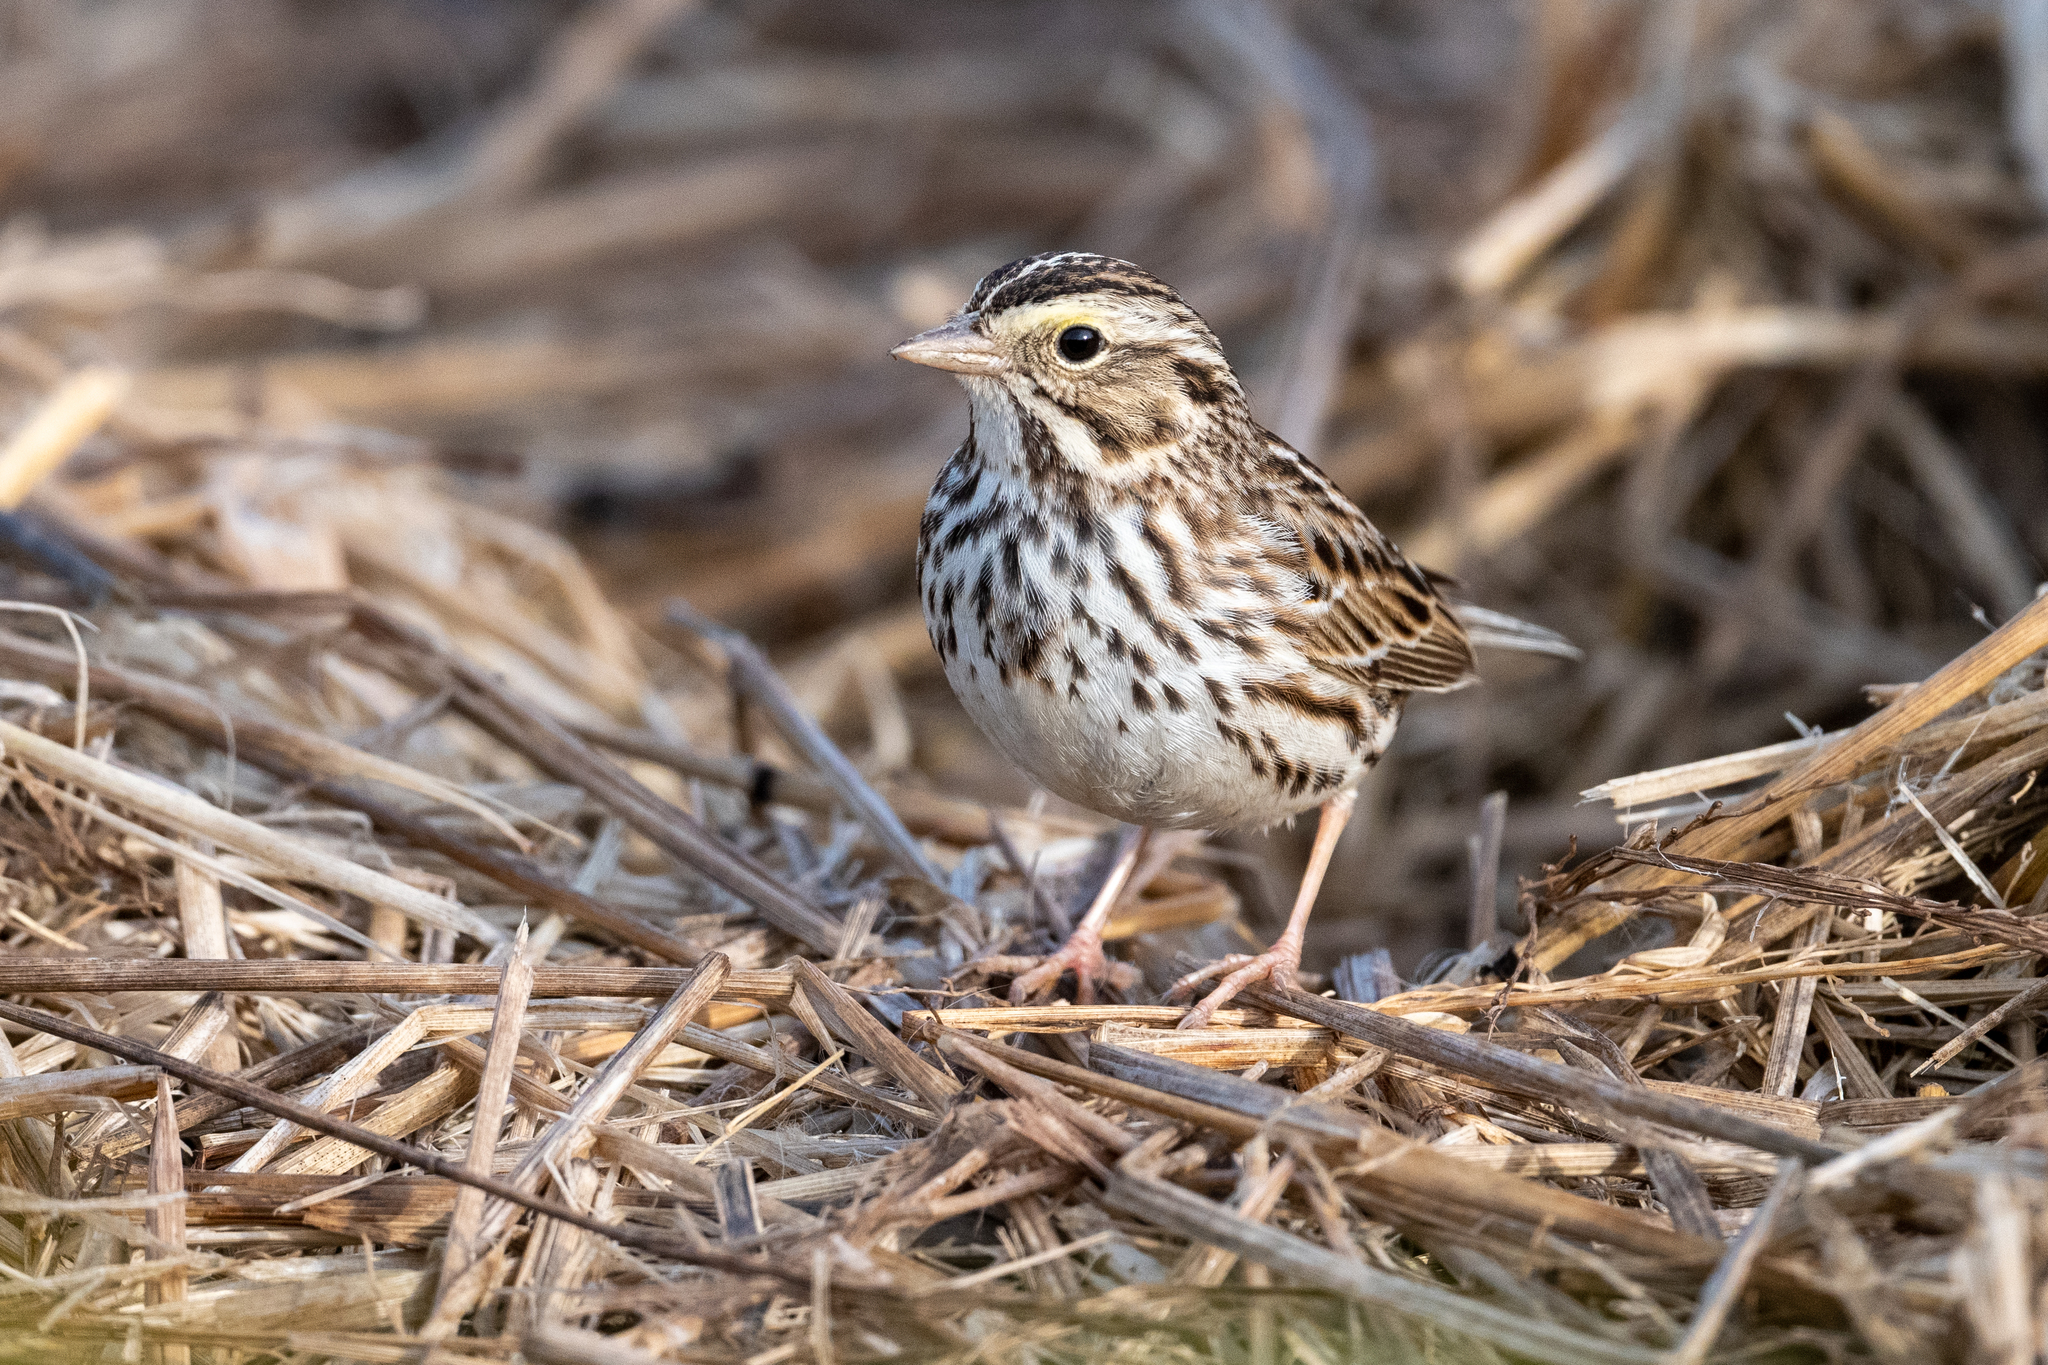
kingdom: Animalia
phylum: Chordata
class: Aves
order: Passeriformes
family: Passerellidae
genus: Passerculus
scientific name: Passerculus sandwichensis
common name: Savannah sparrow
